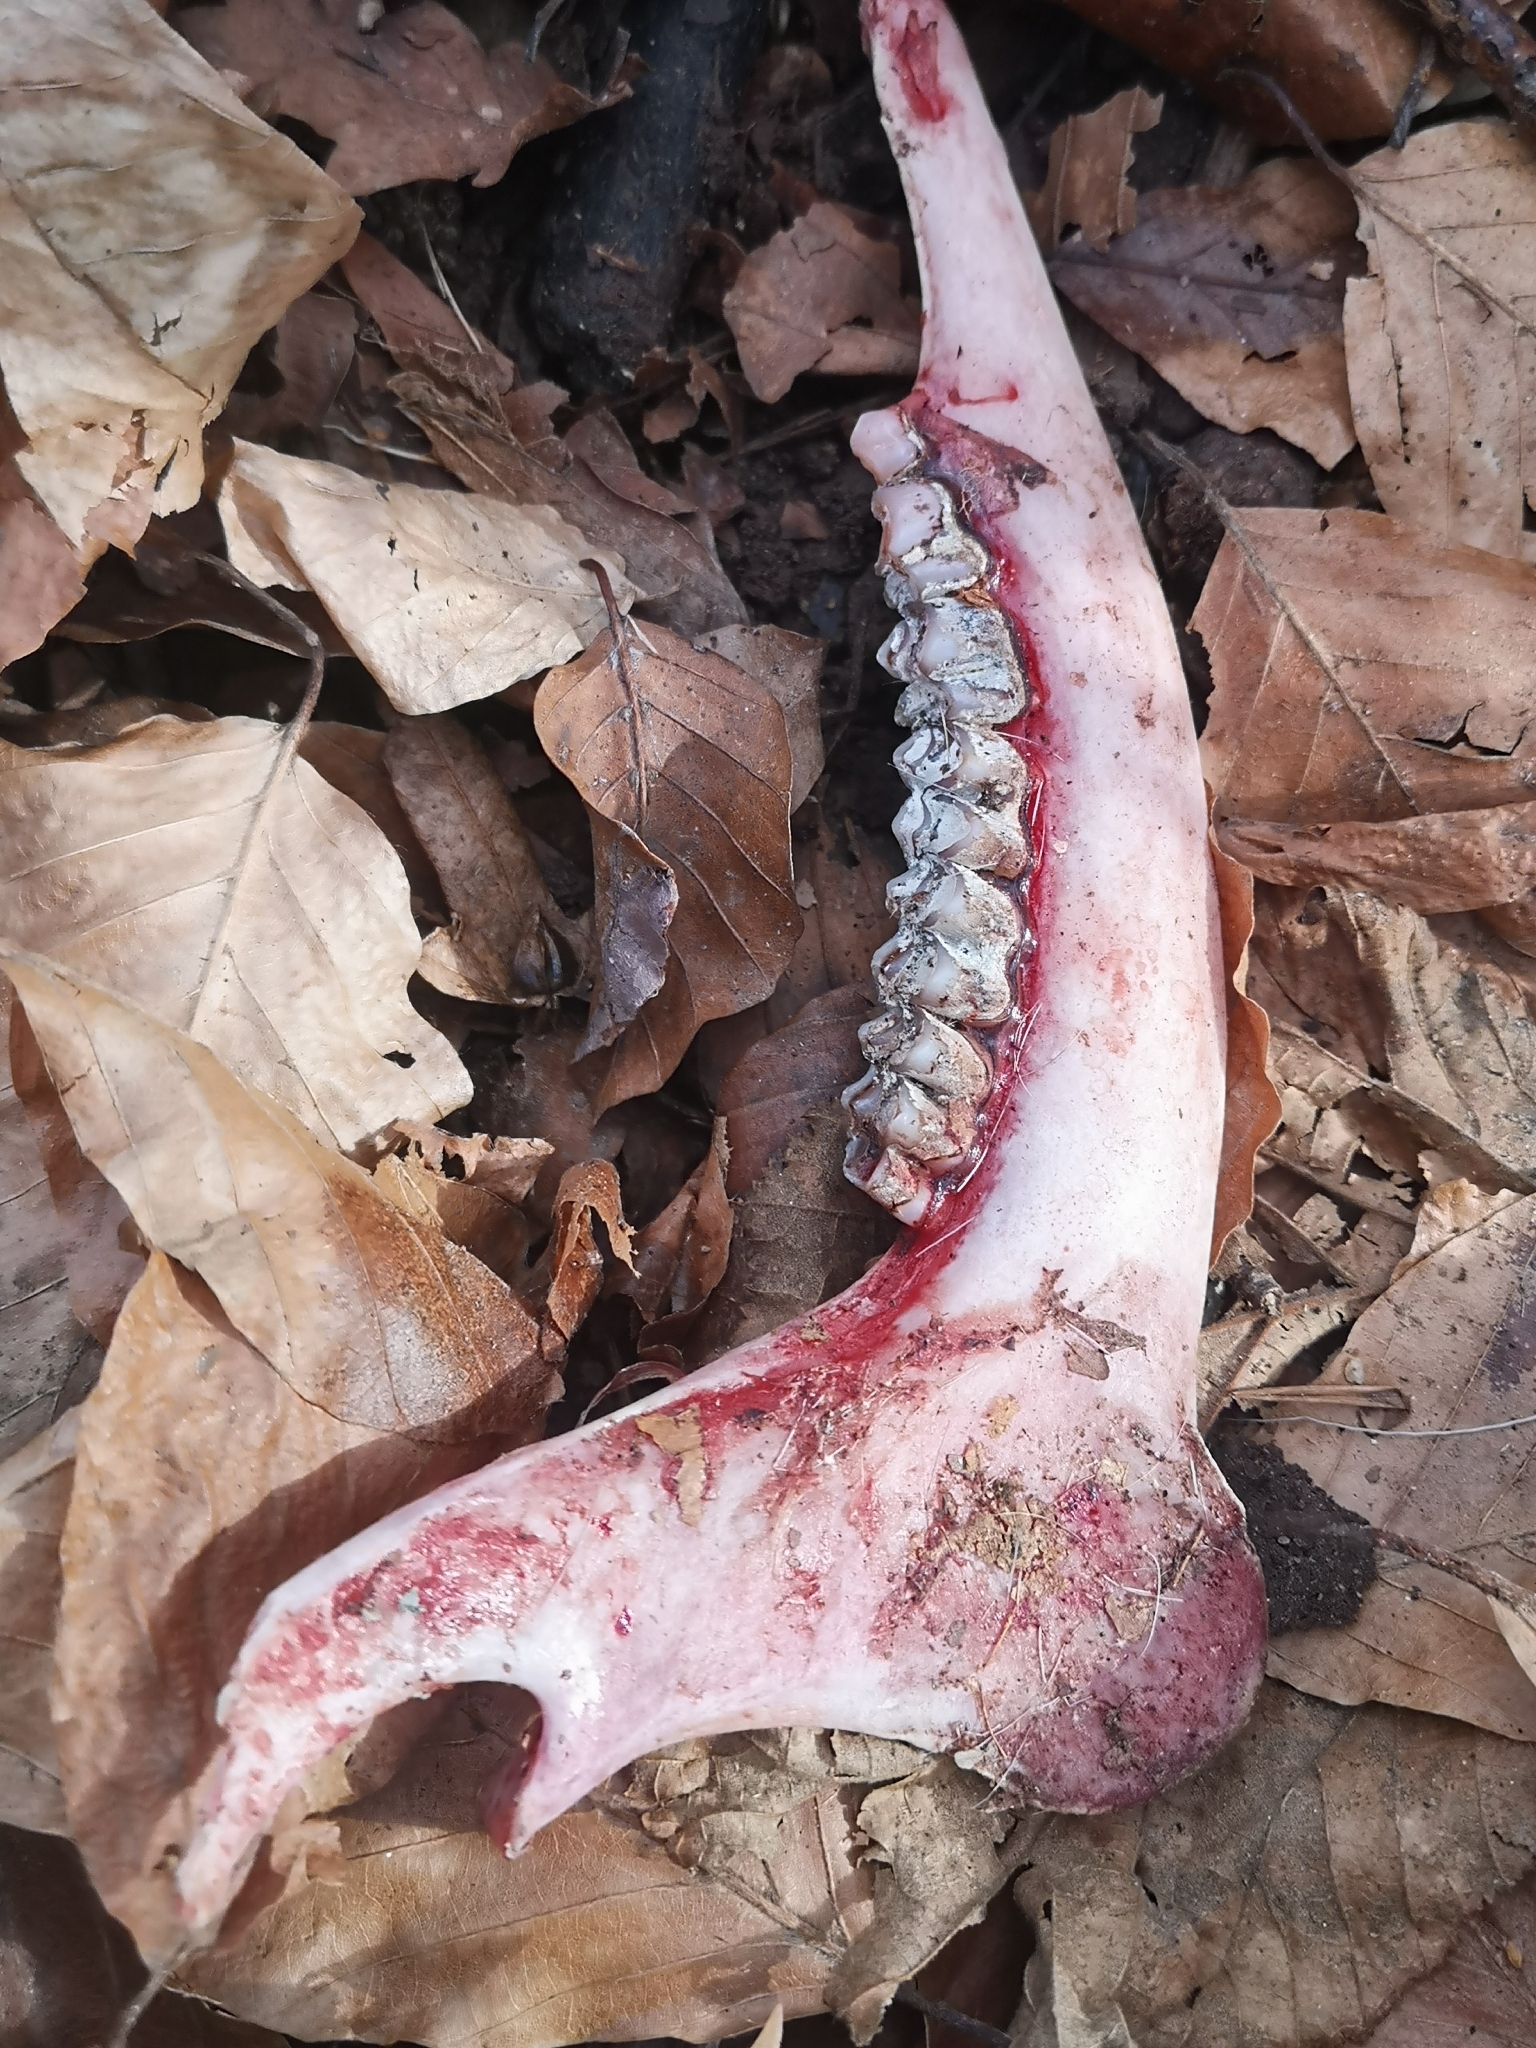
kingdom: Animalia
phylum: Chordata
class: Mammalia
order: Artiodactyla
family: Cervidae
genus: Capreolus
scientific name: Capreolus capreolus
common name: Western roe deer
